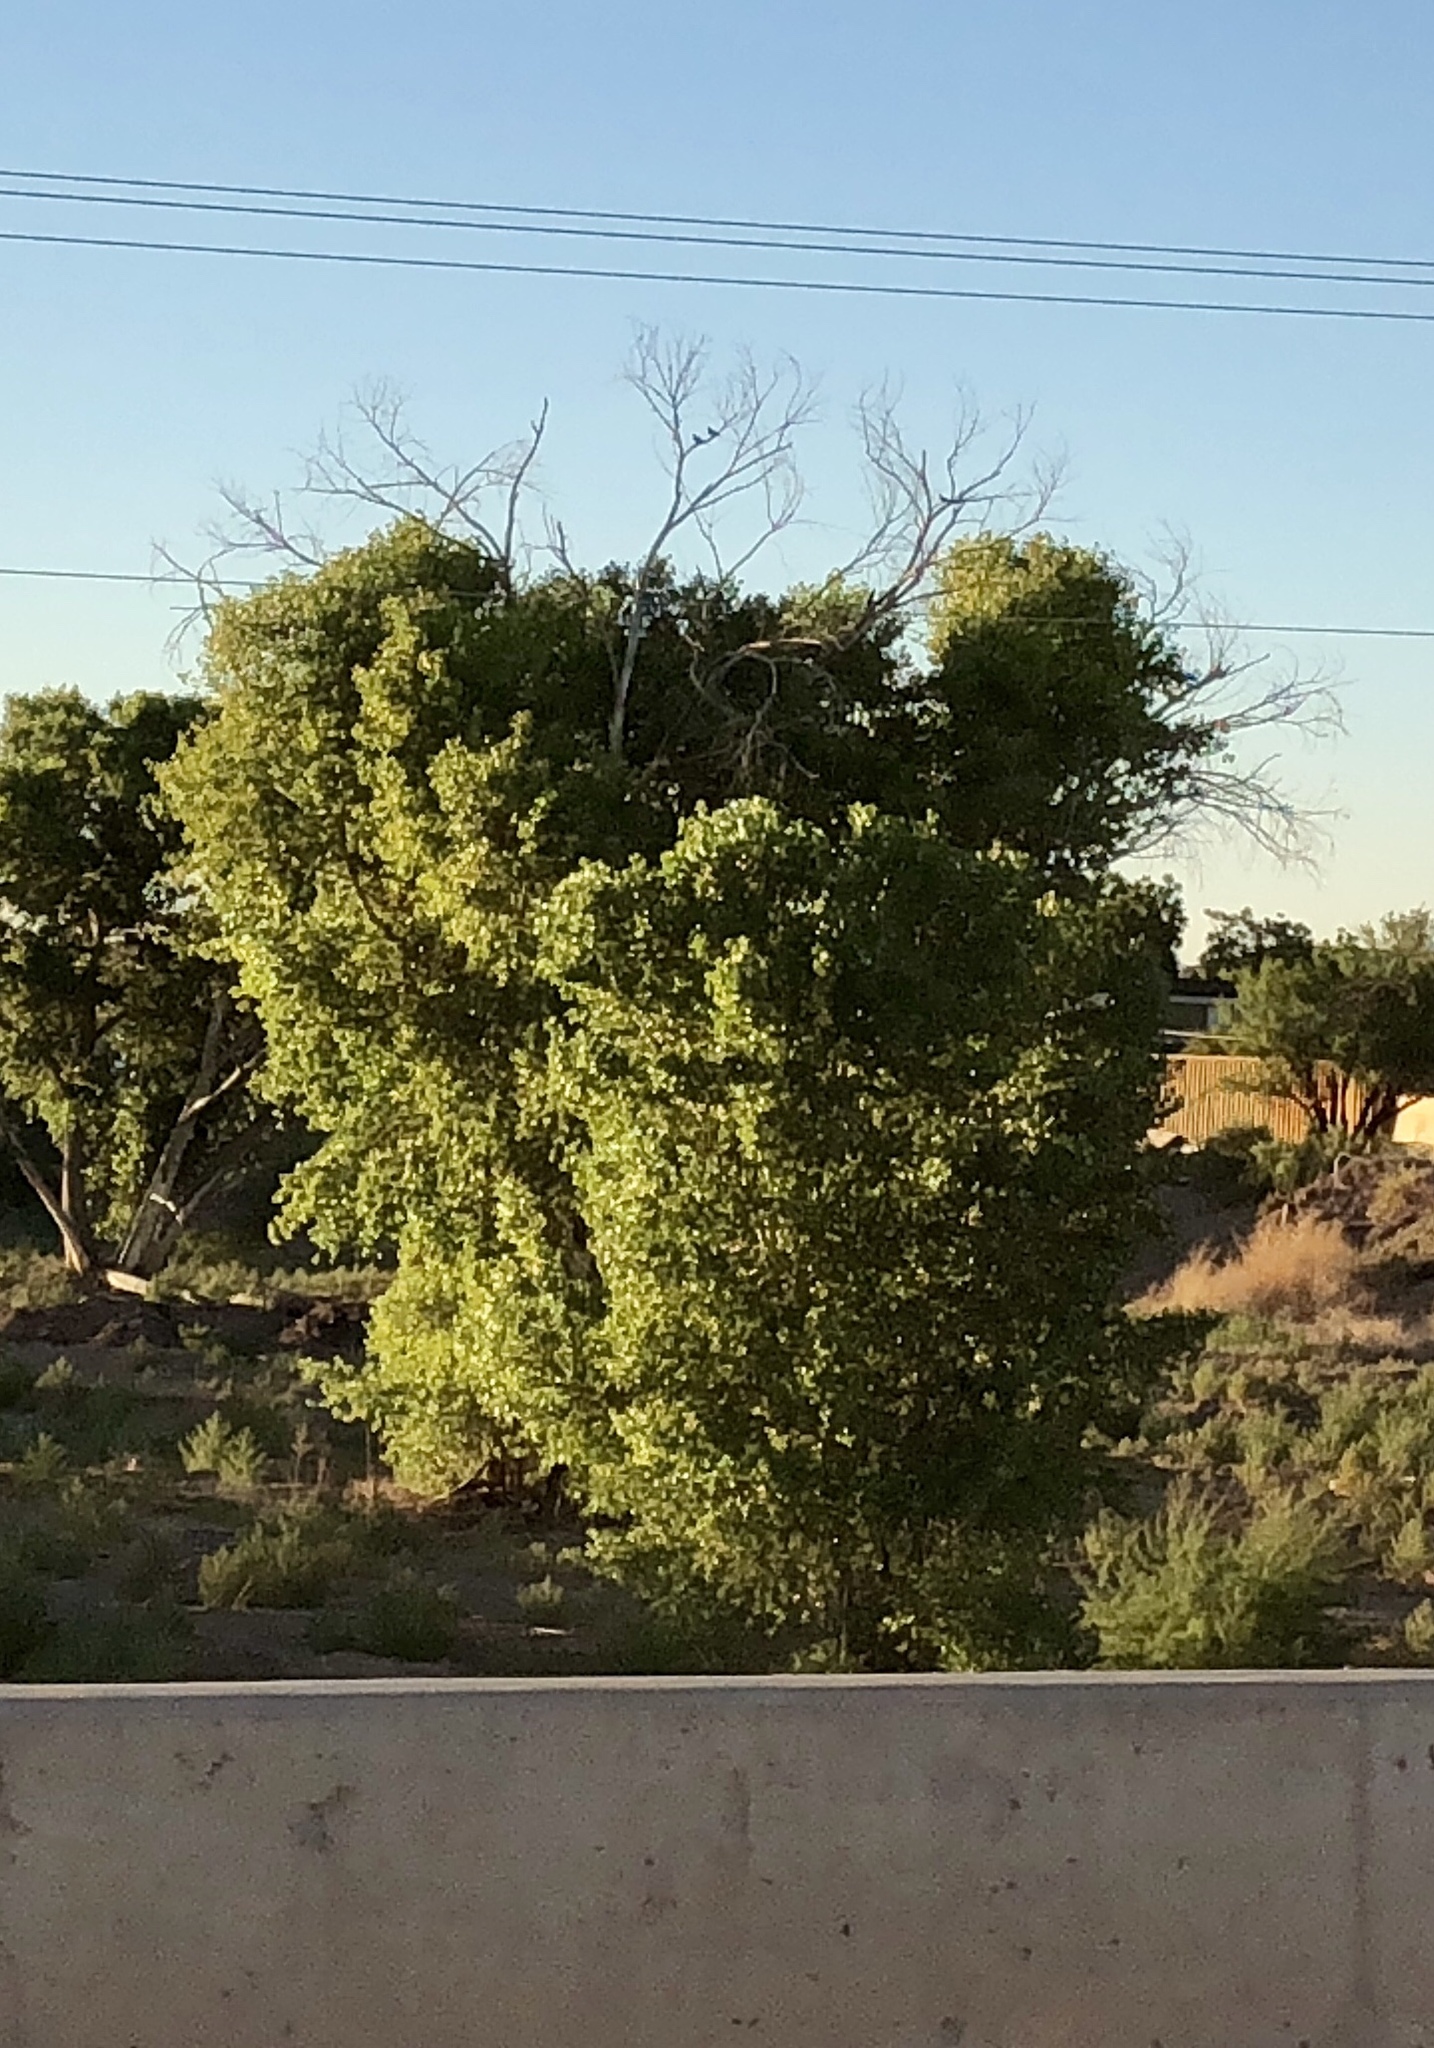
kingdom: Plantae
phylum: Tracheophyta
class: Magnoliopsida
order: Malpighiales
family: Salicaceae
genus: Populus
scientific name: Populus fremontii
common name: Fremont's cottonwood
